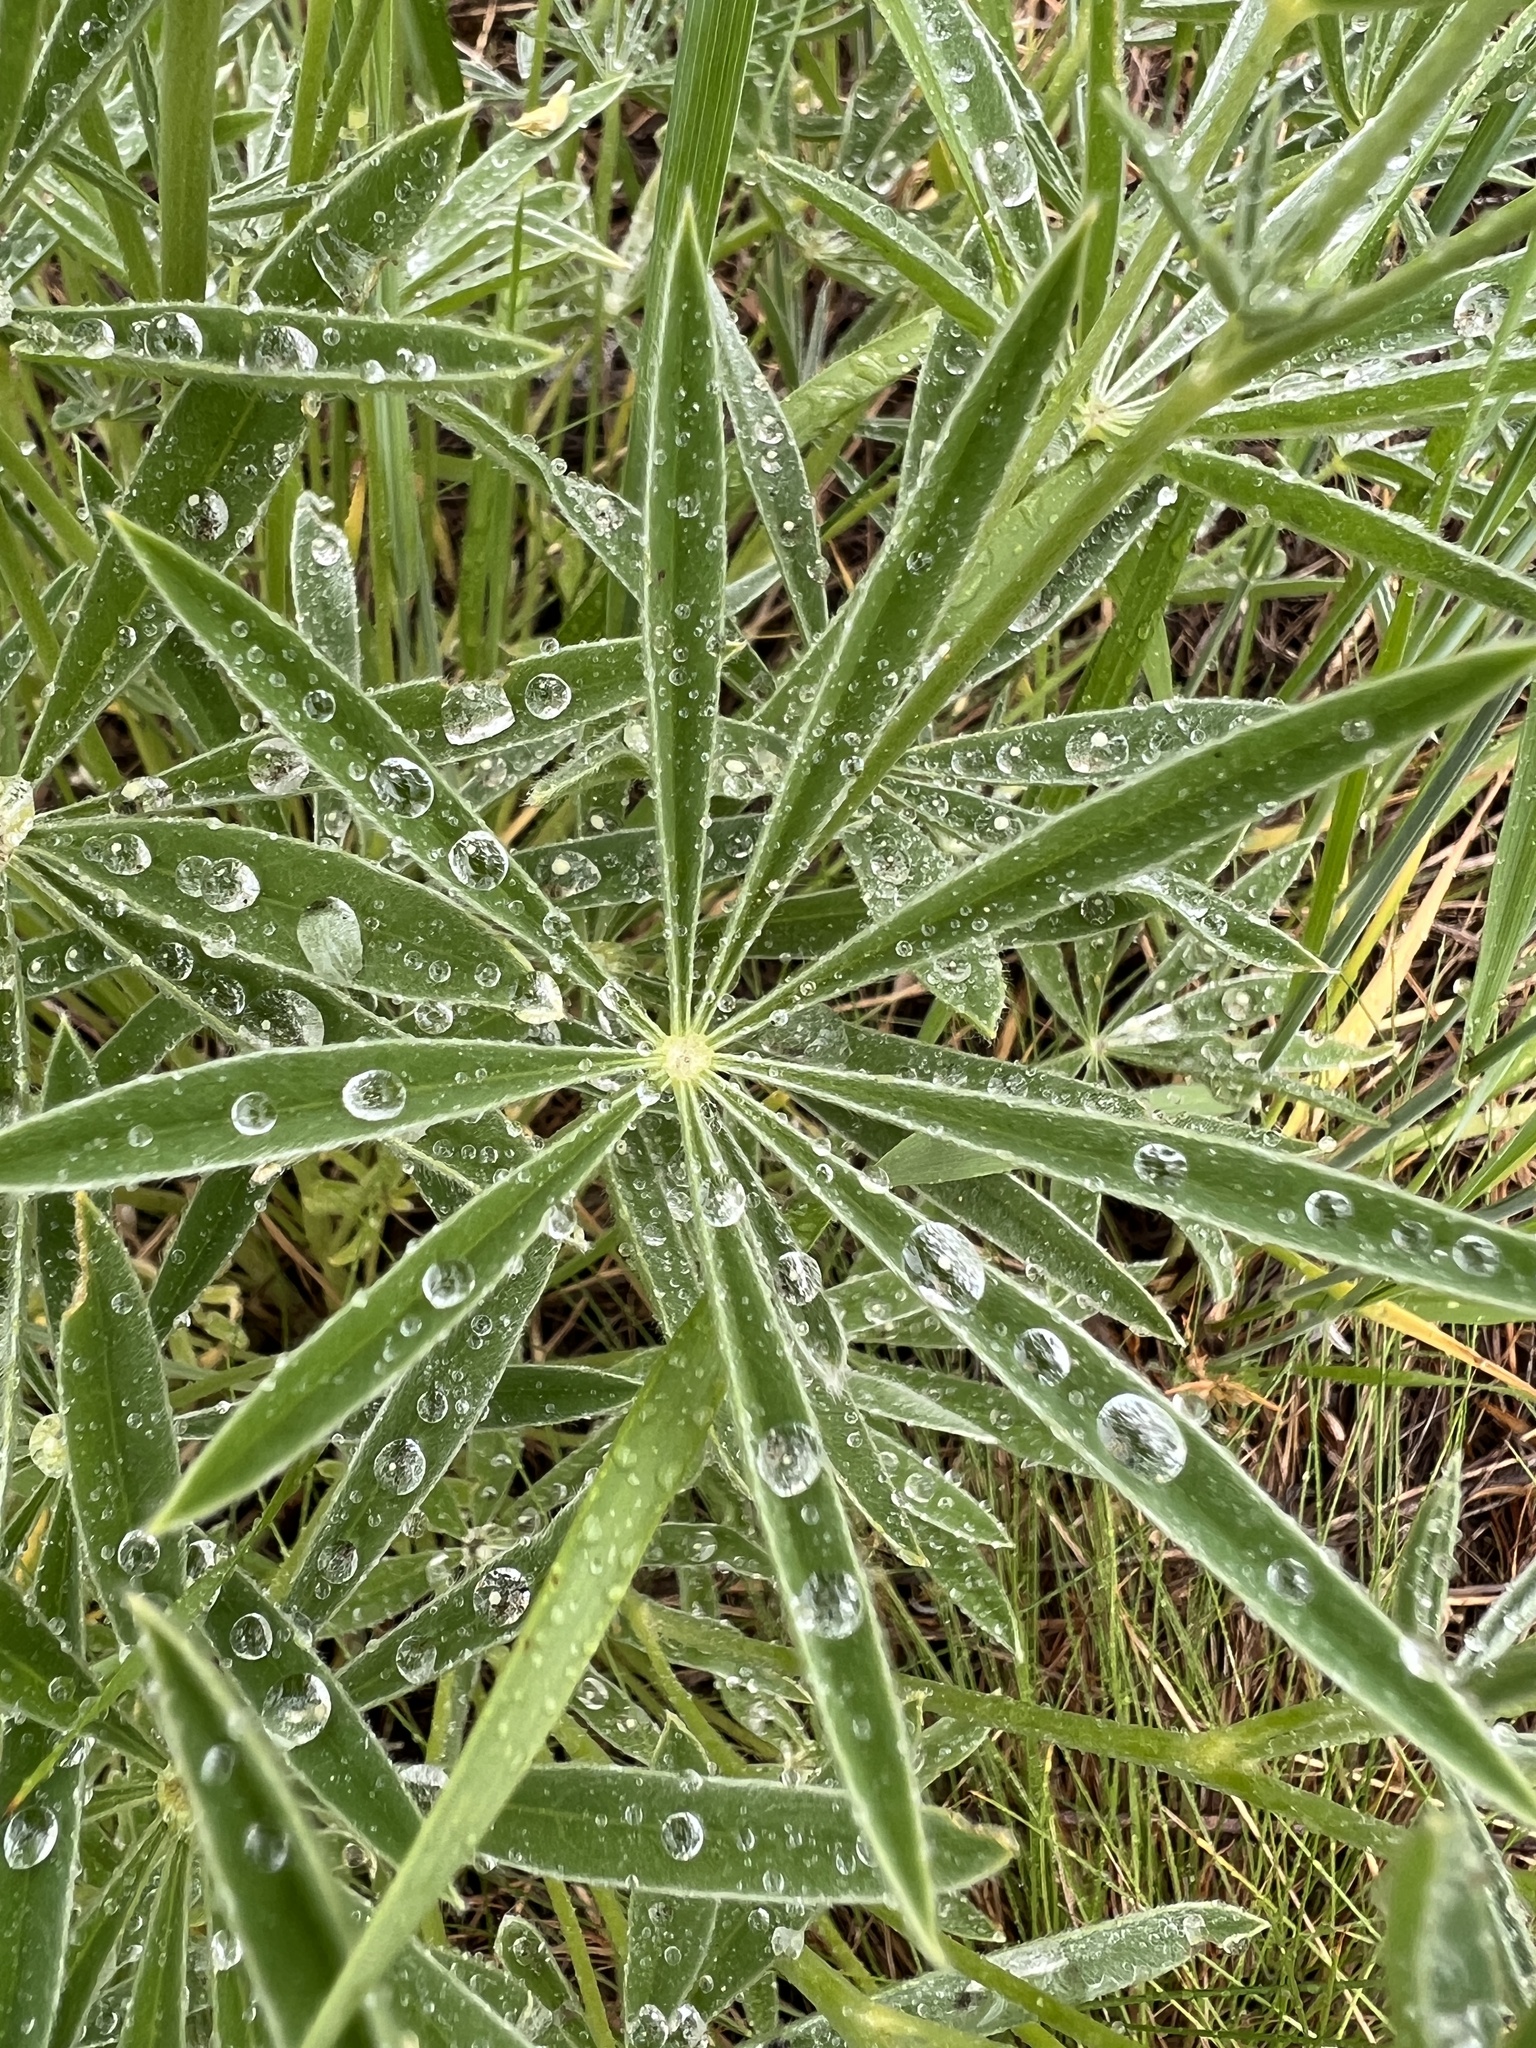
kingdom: Plantae
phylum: Tracheophyta
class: Magnoliopsida
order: Fabales
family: Fabaceae
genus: Lupinus
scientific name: Lupinus sulphureus
